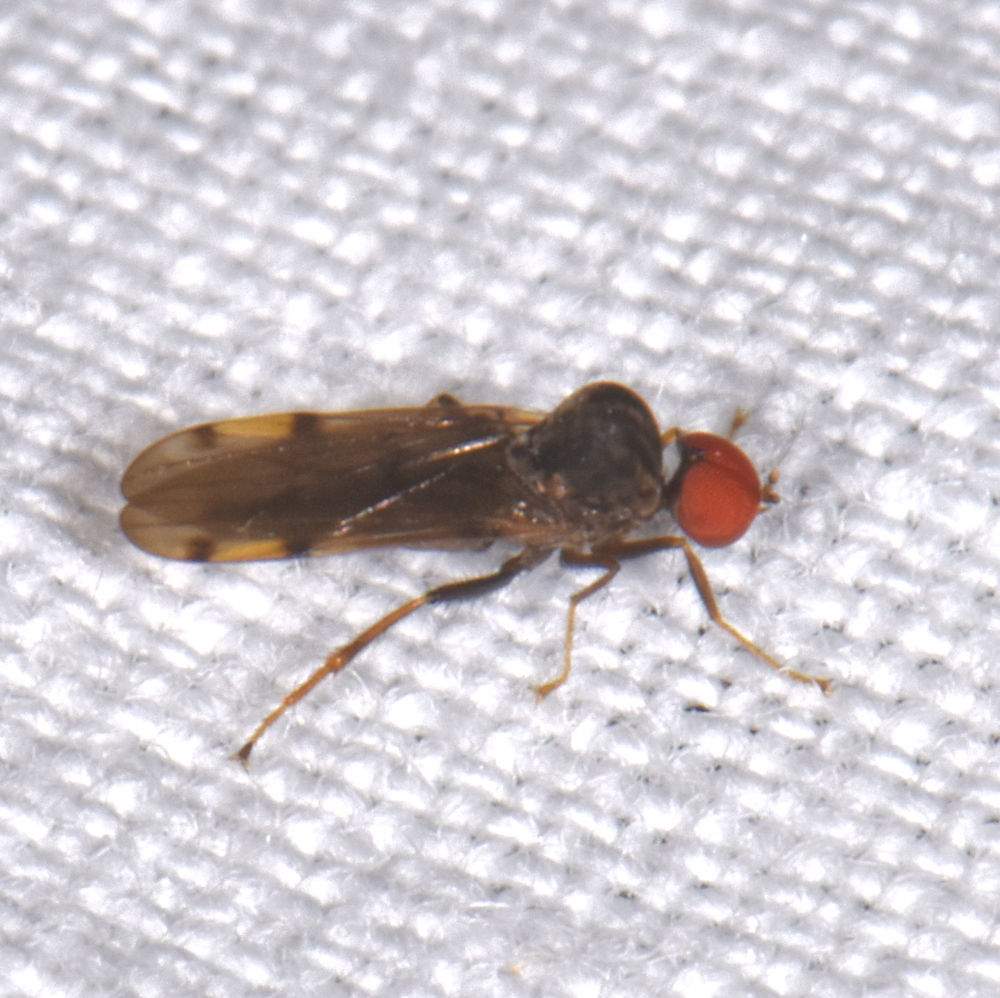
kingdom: Animalia
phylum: Arthropoda
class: Insecta
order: Diptera
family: Hybotidae
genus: Syneches
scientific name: Syneches simplex
